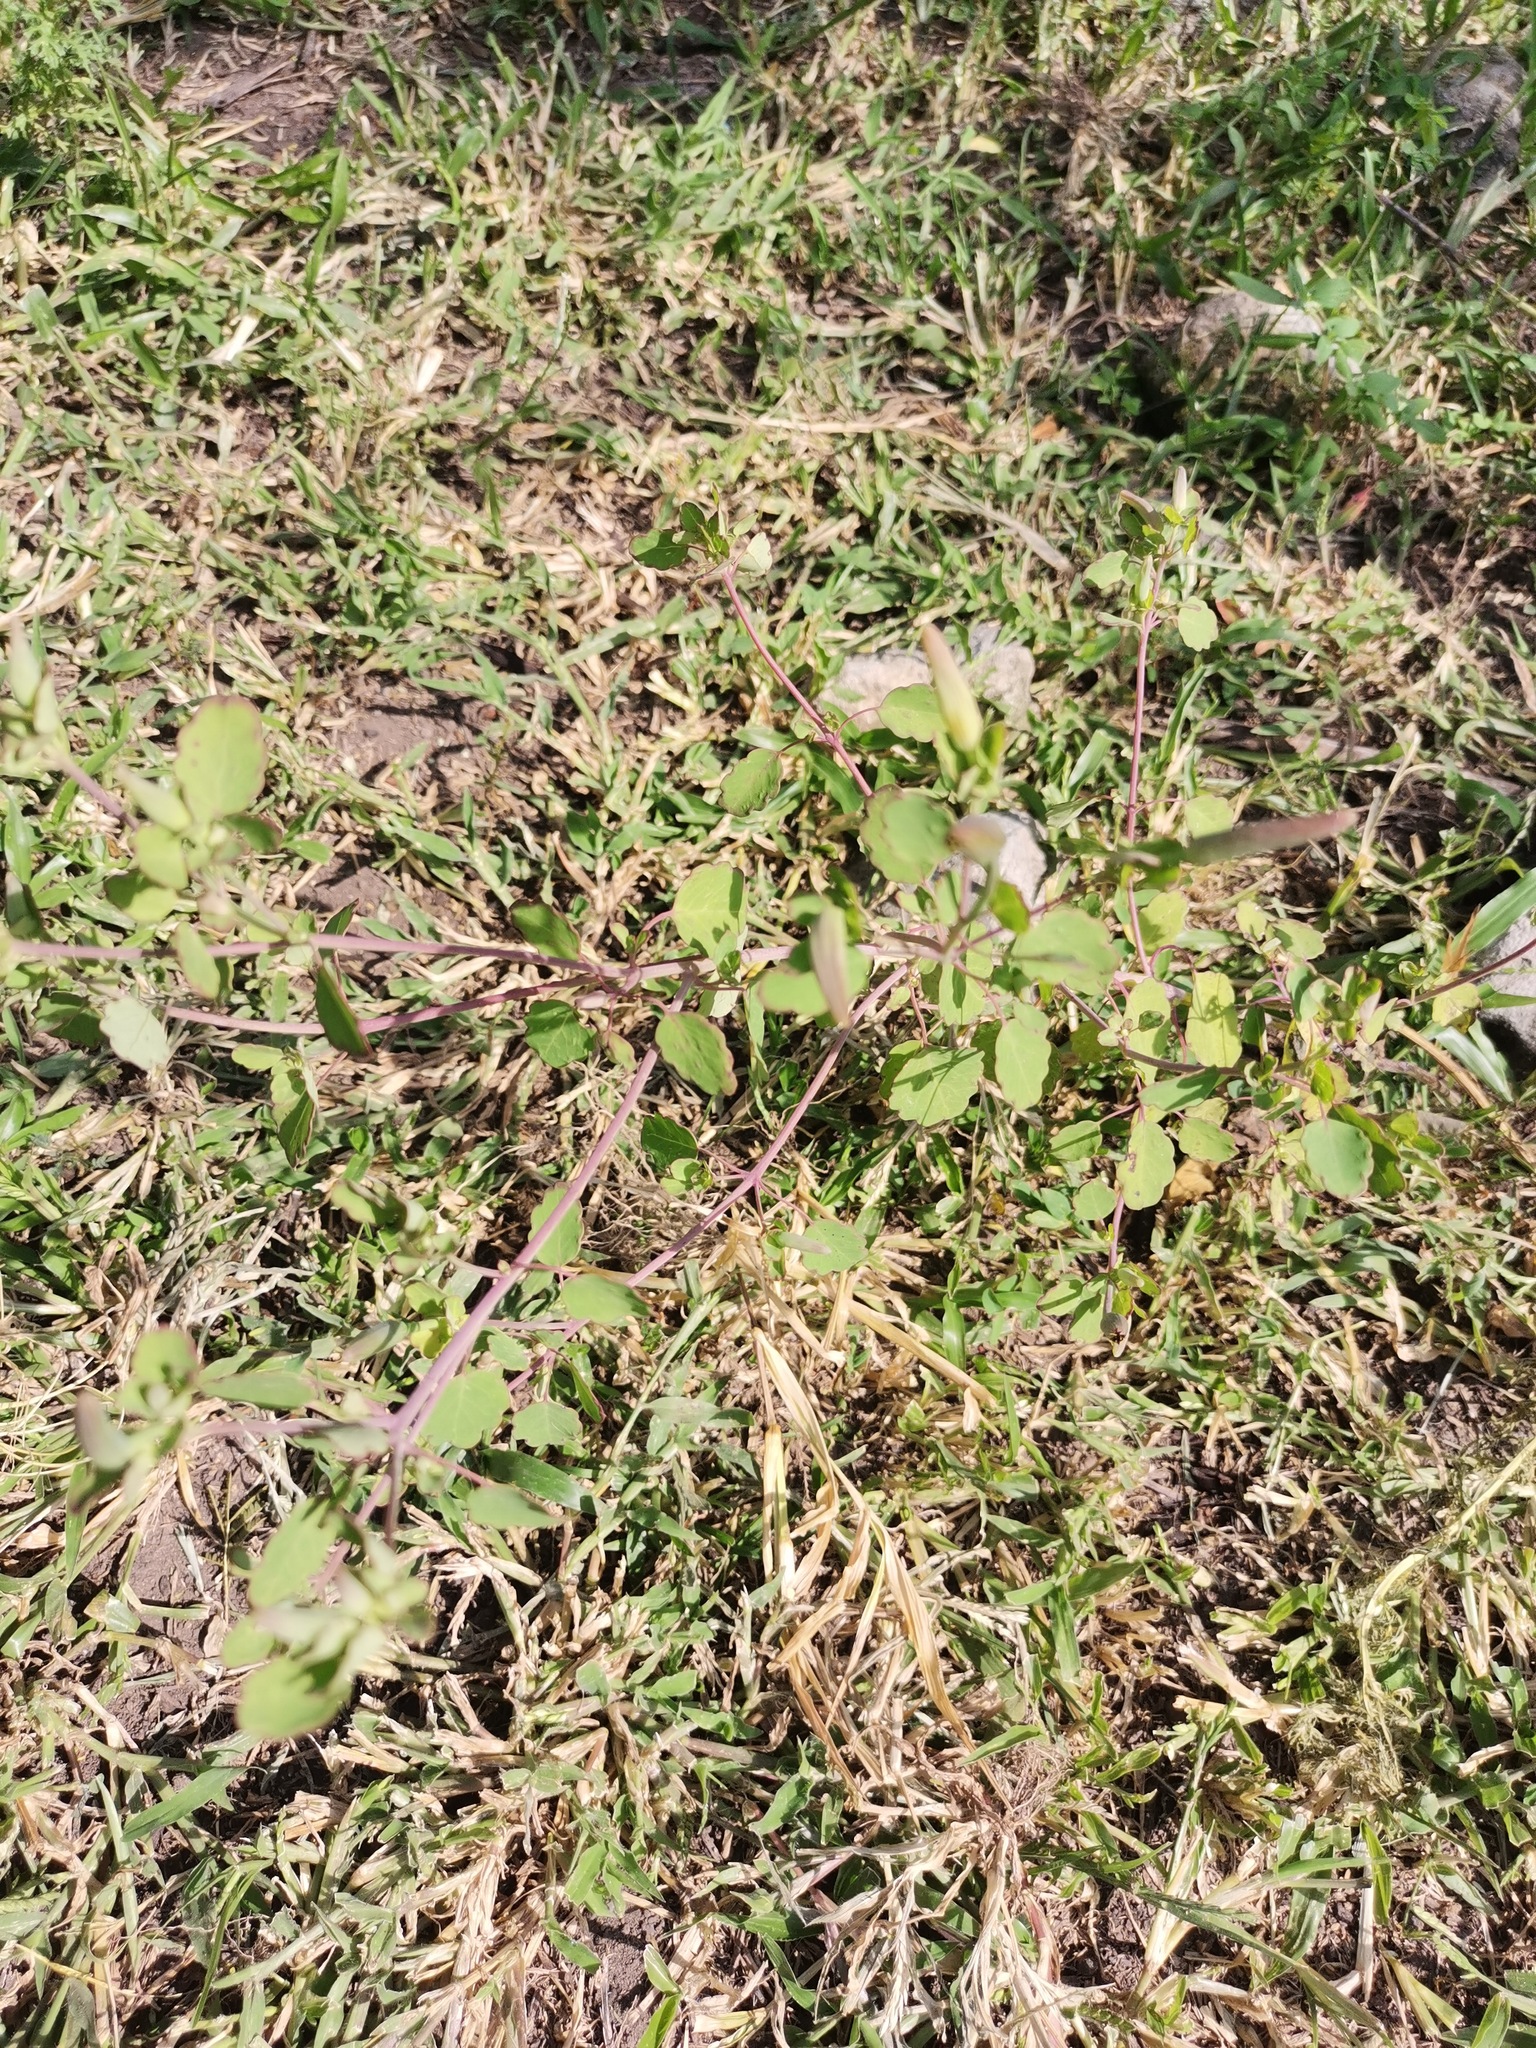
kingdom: Plantae
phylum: Tracheophyta
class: Magnoliopsida
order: Asterales
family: Asteraceae
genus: Porophyllum
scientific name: Porophyllum ruderale
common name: Yerba porosa
